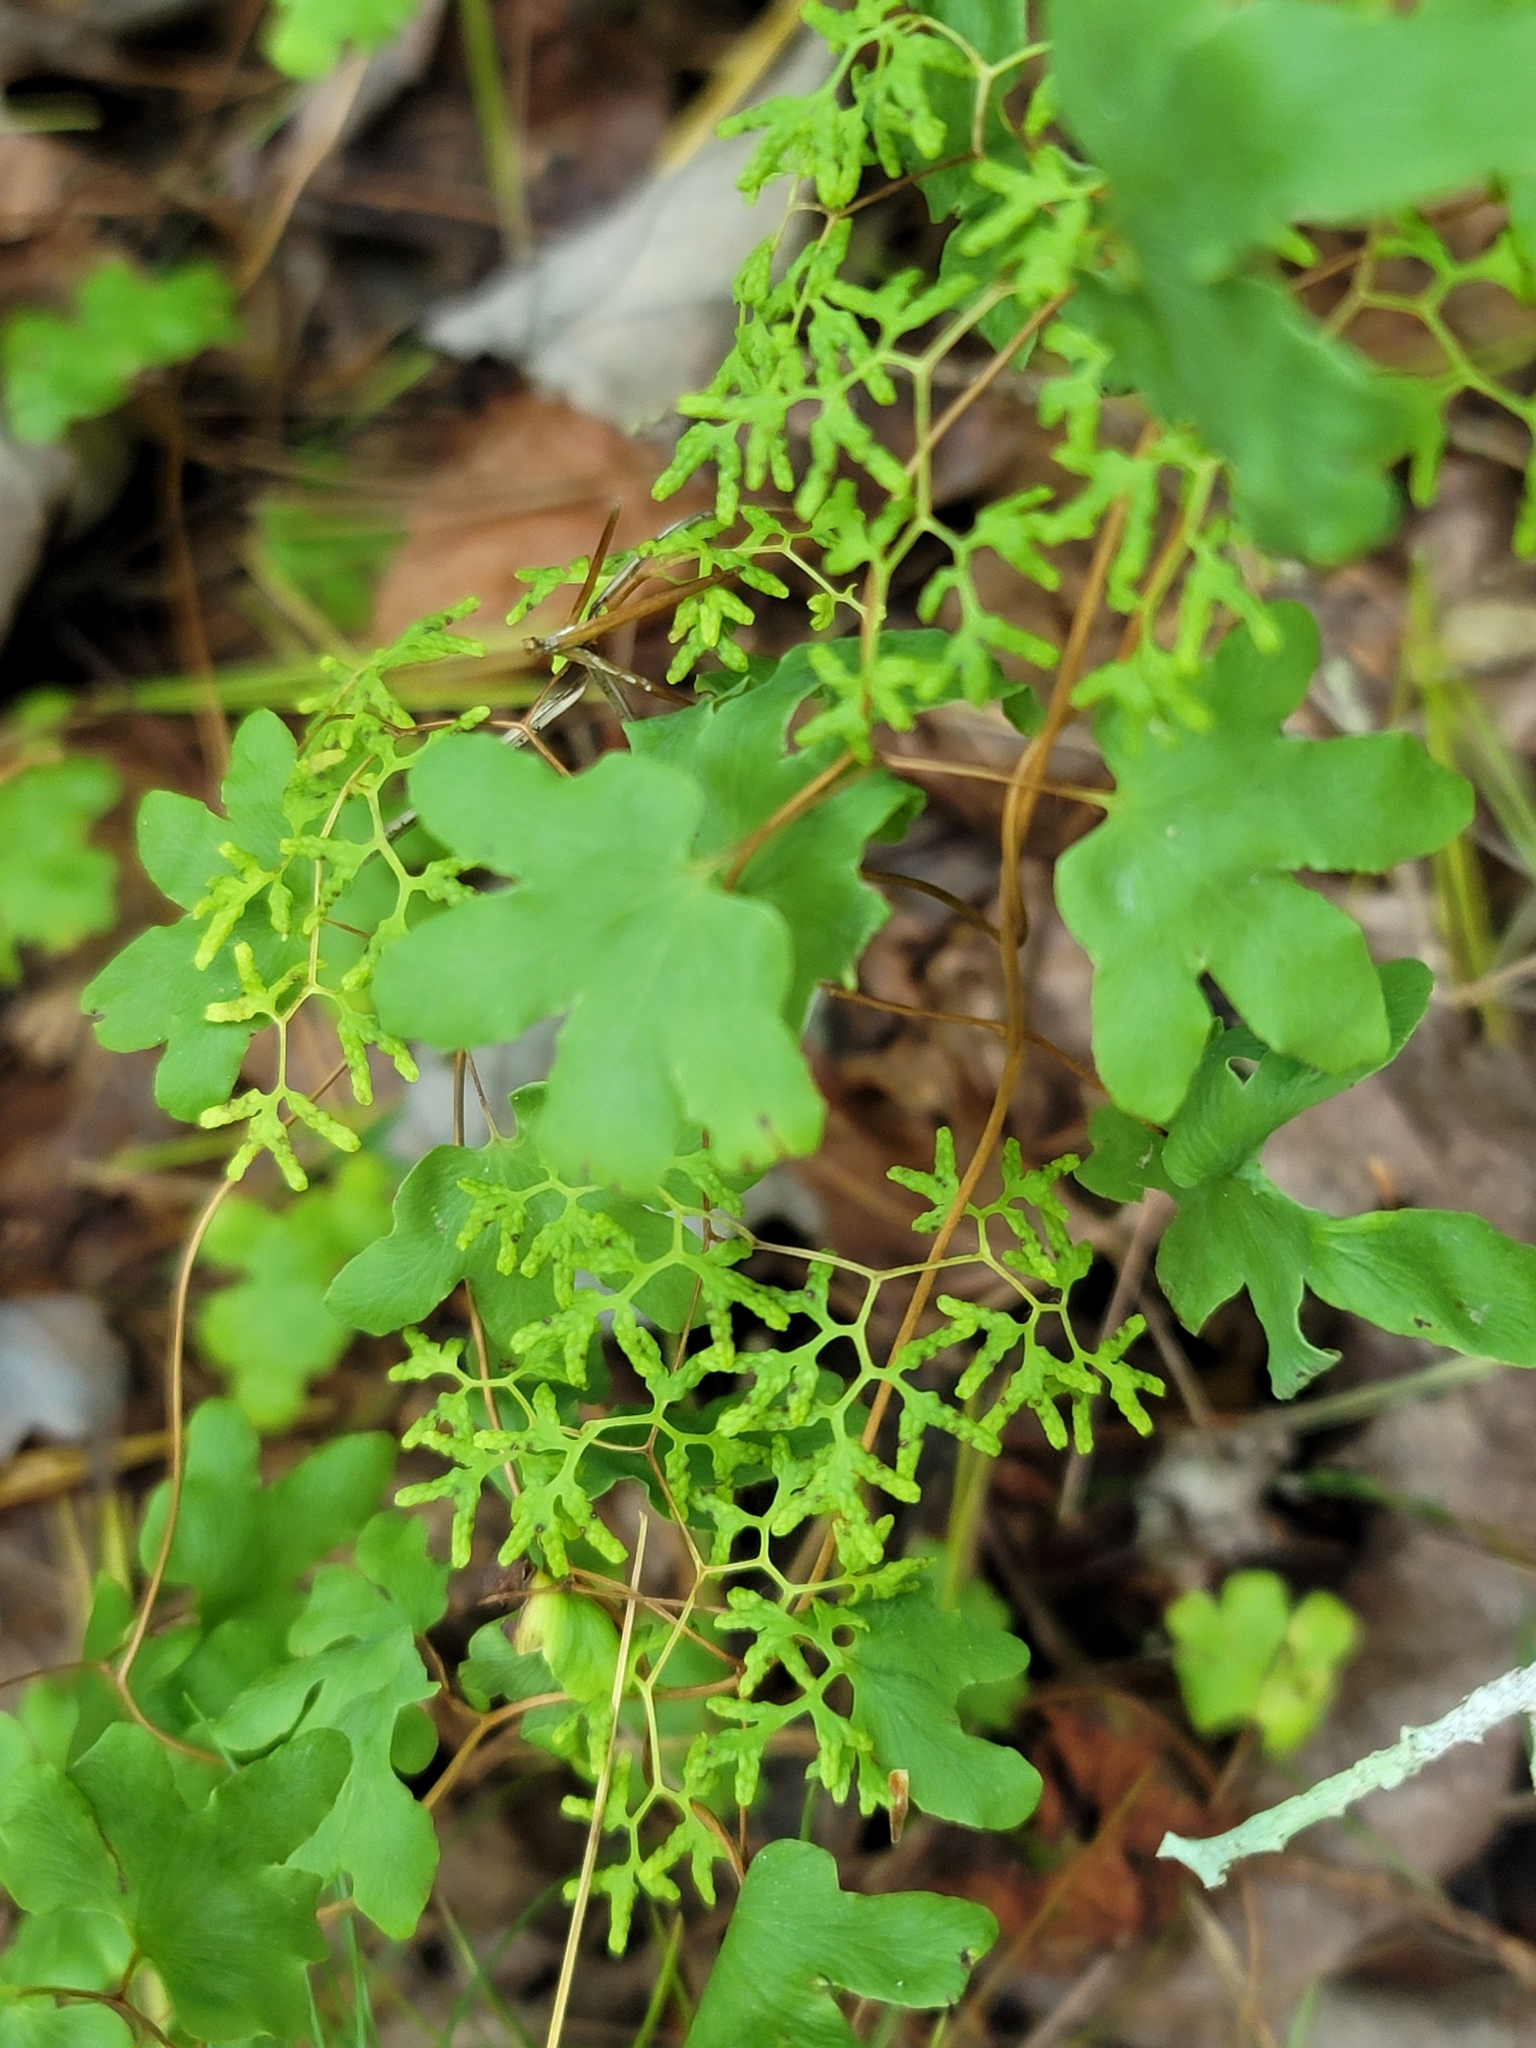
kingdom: Plantae
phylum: Tracheophyta
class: Polypodiopsida
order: Schizaeales
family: Lygodiaceae
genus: Lygodium
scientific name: Lygodium palmatum
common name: American climbing fern
